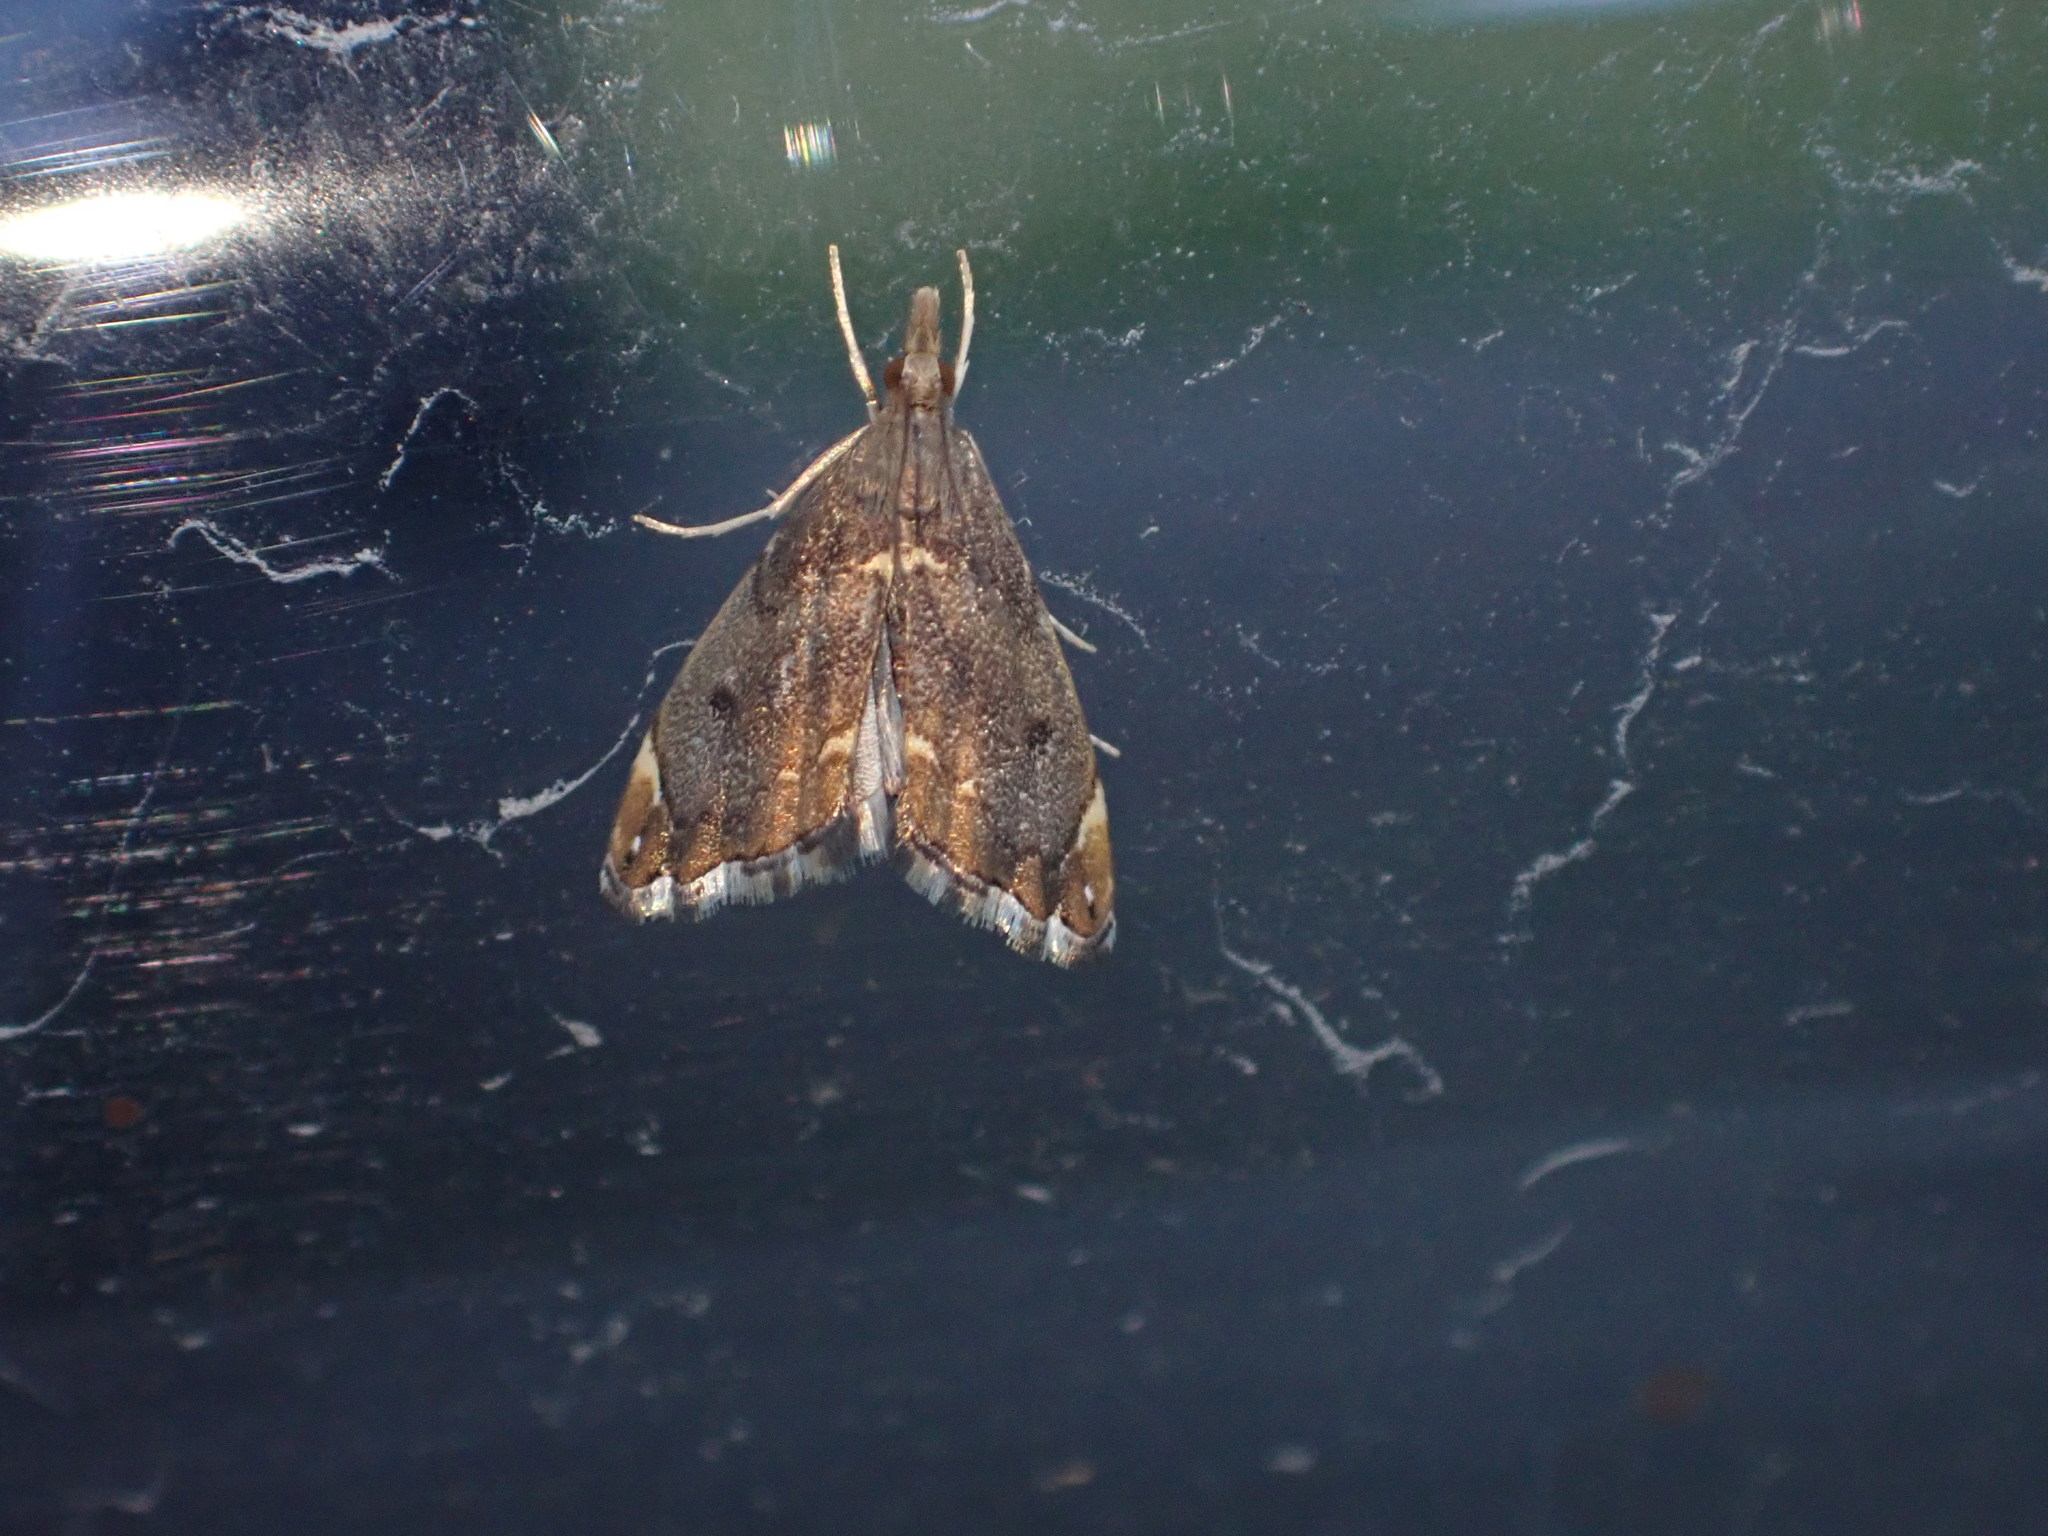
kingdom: Animalia
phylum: Arthropoda
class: Insecta
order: Lepidoptera
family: Crambidae
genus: Glaucocharis
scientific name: Glaucocharis pyrsophanes
